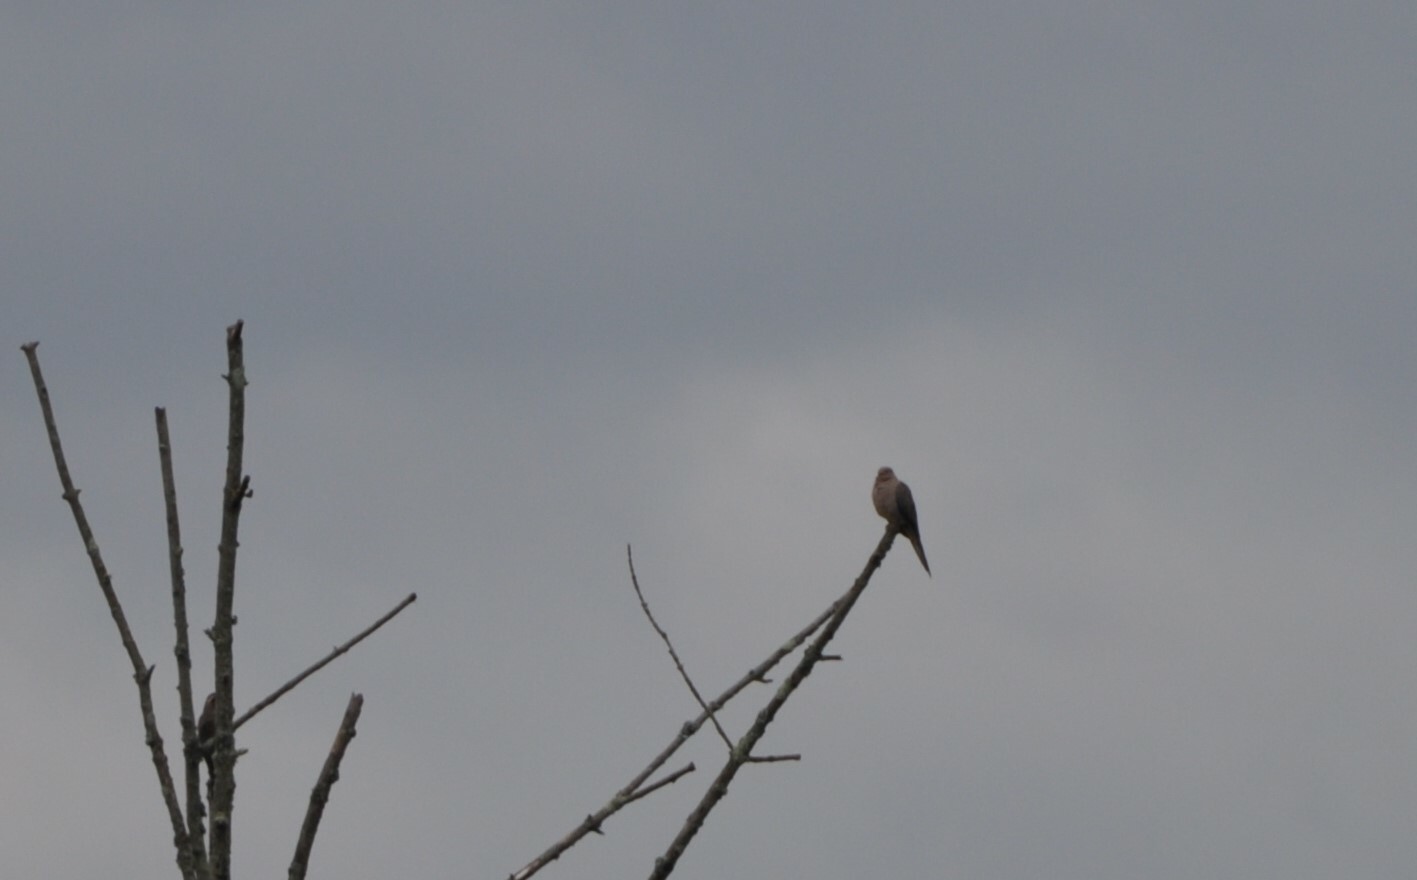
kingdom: Animalia
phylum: Chordata
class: Aves
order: Columbiformes
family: Columbidae
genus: Zenaida
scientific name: Zenaida macroura
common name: Mourning dove
